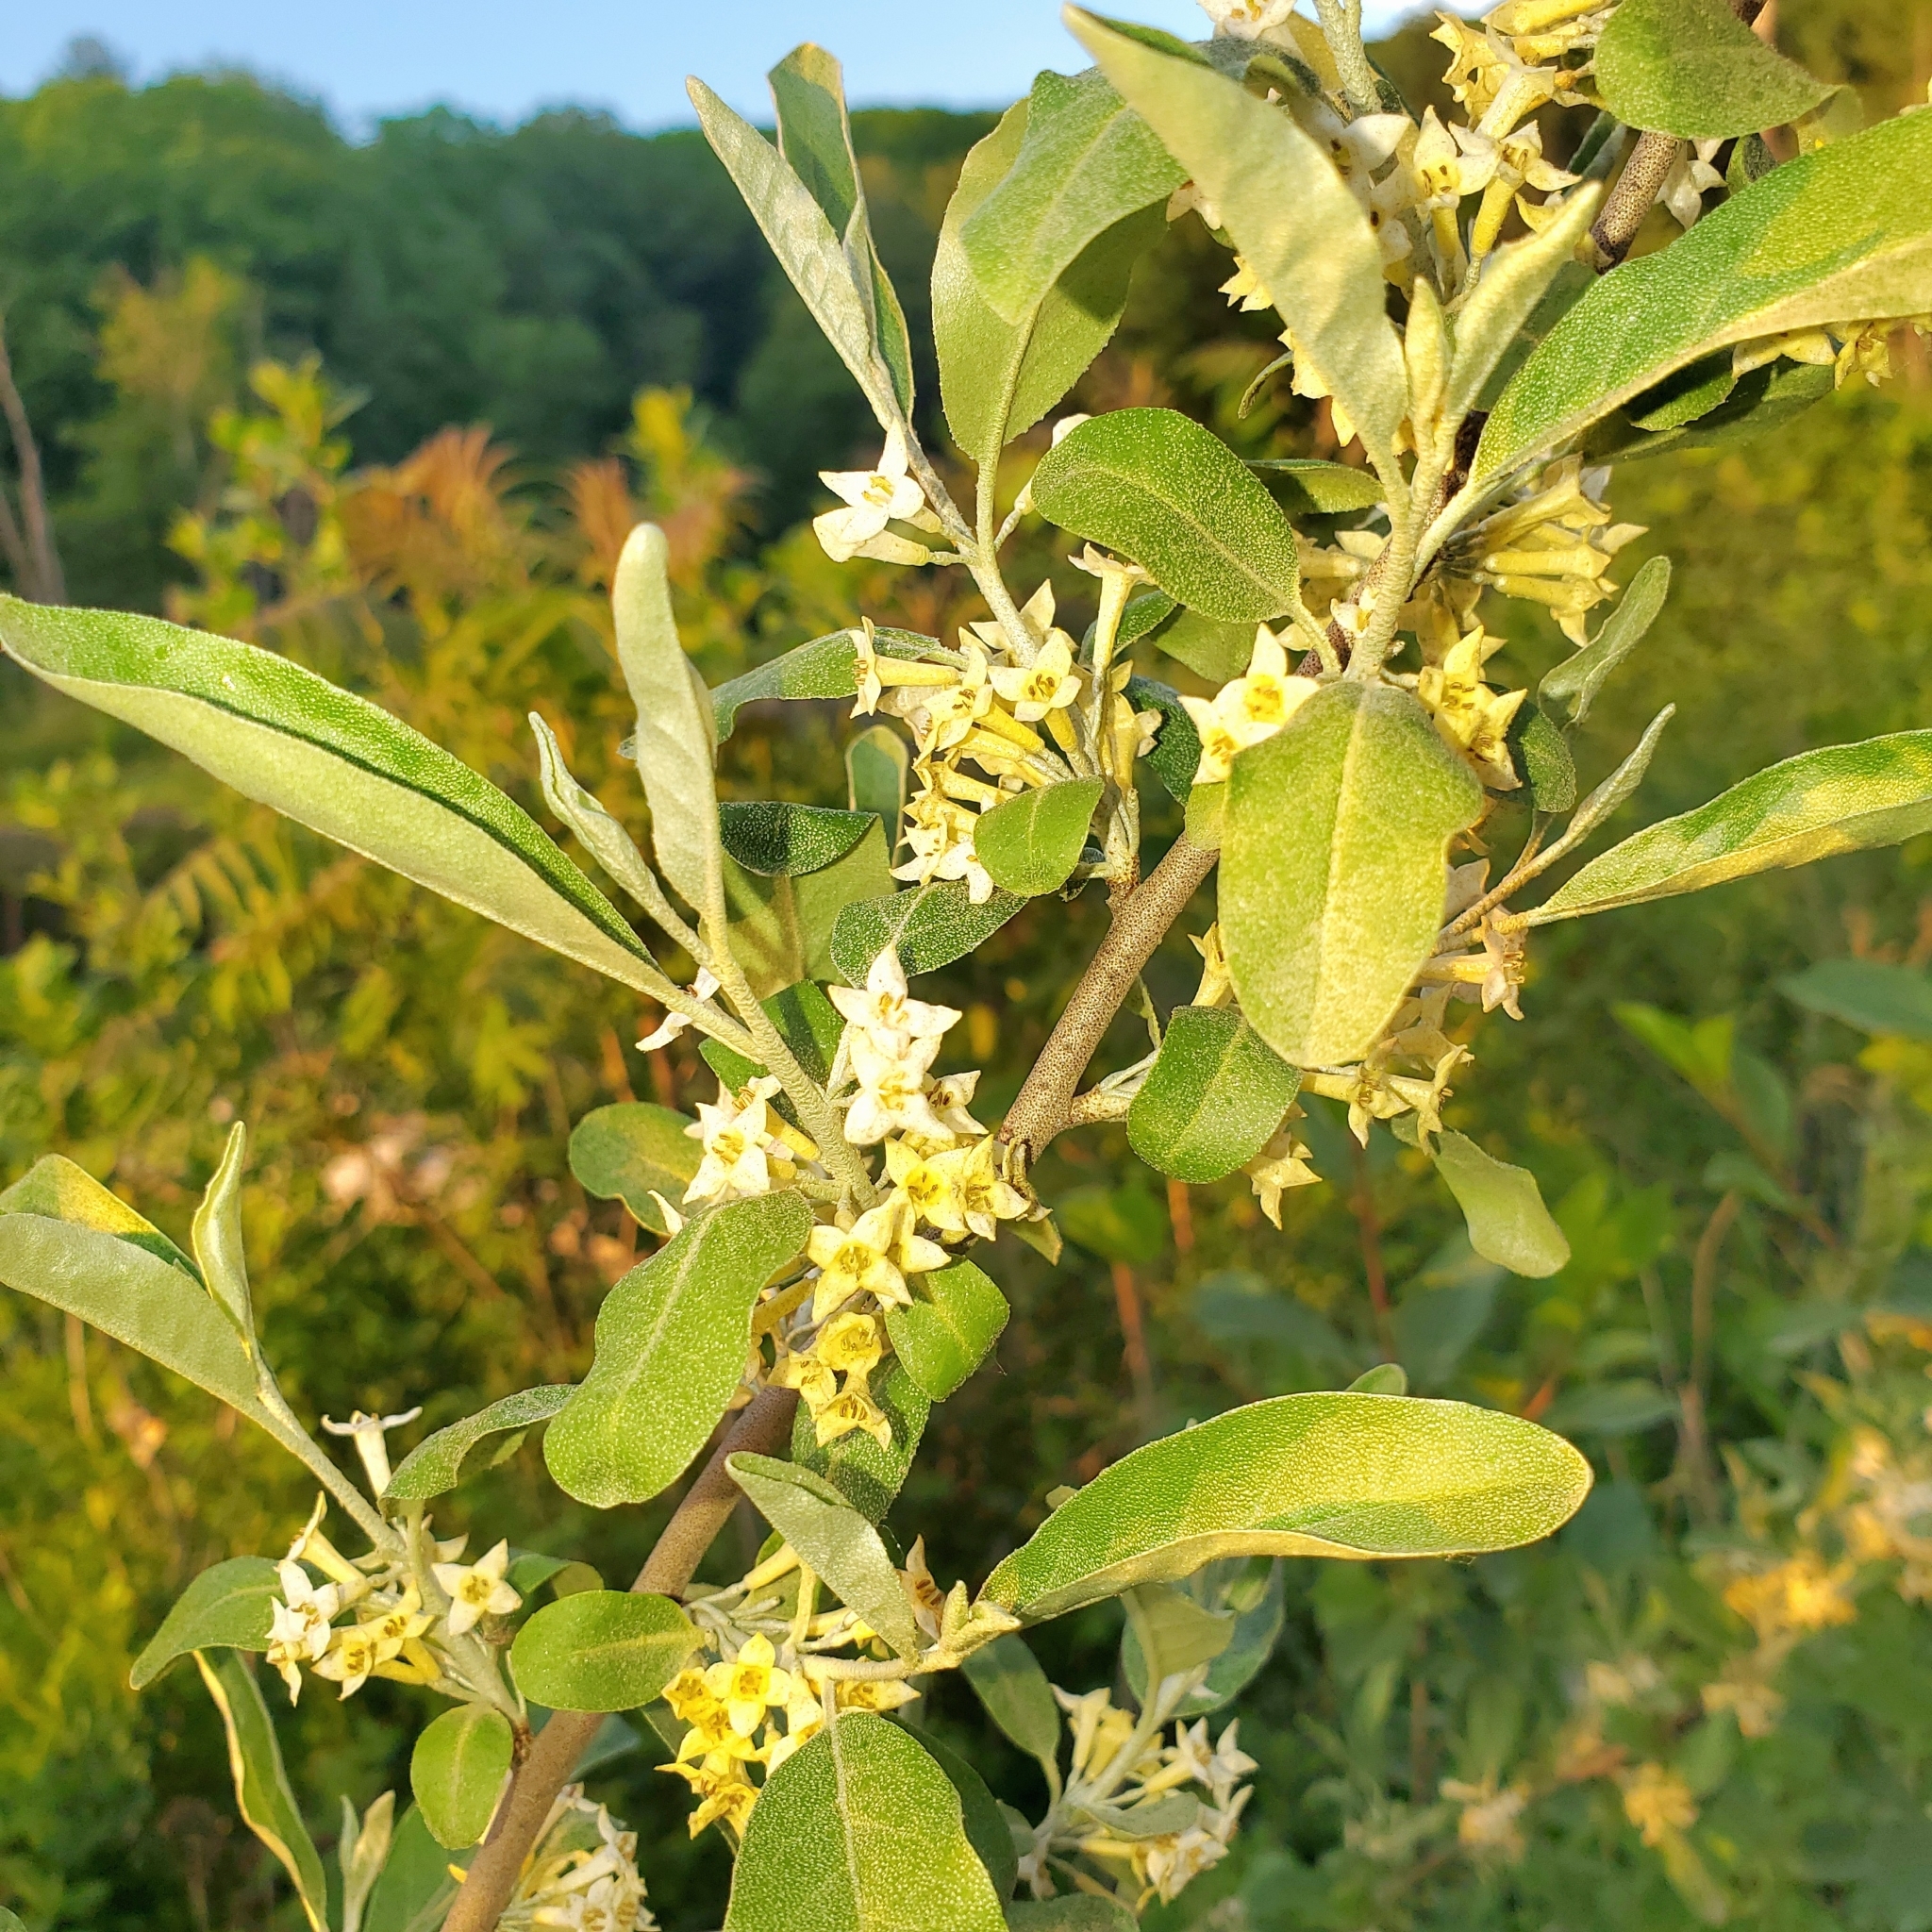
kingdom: Plantae
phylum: Tracheophyta
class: Magnoliopsida
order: Rosales
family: Elaeagnaceae
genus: Elaeagnus
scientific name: Elaeagnus umbellata
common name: Autumn olive
